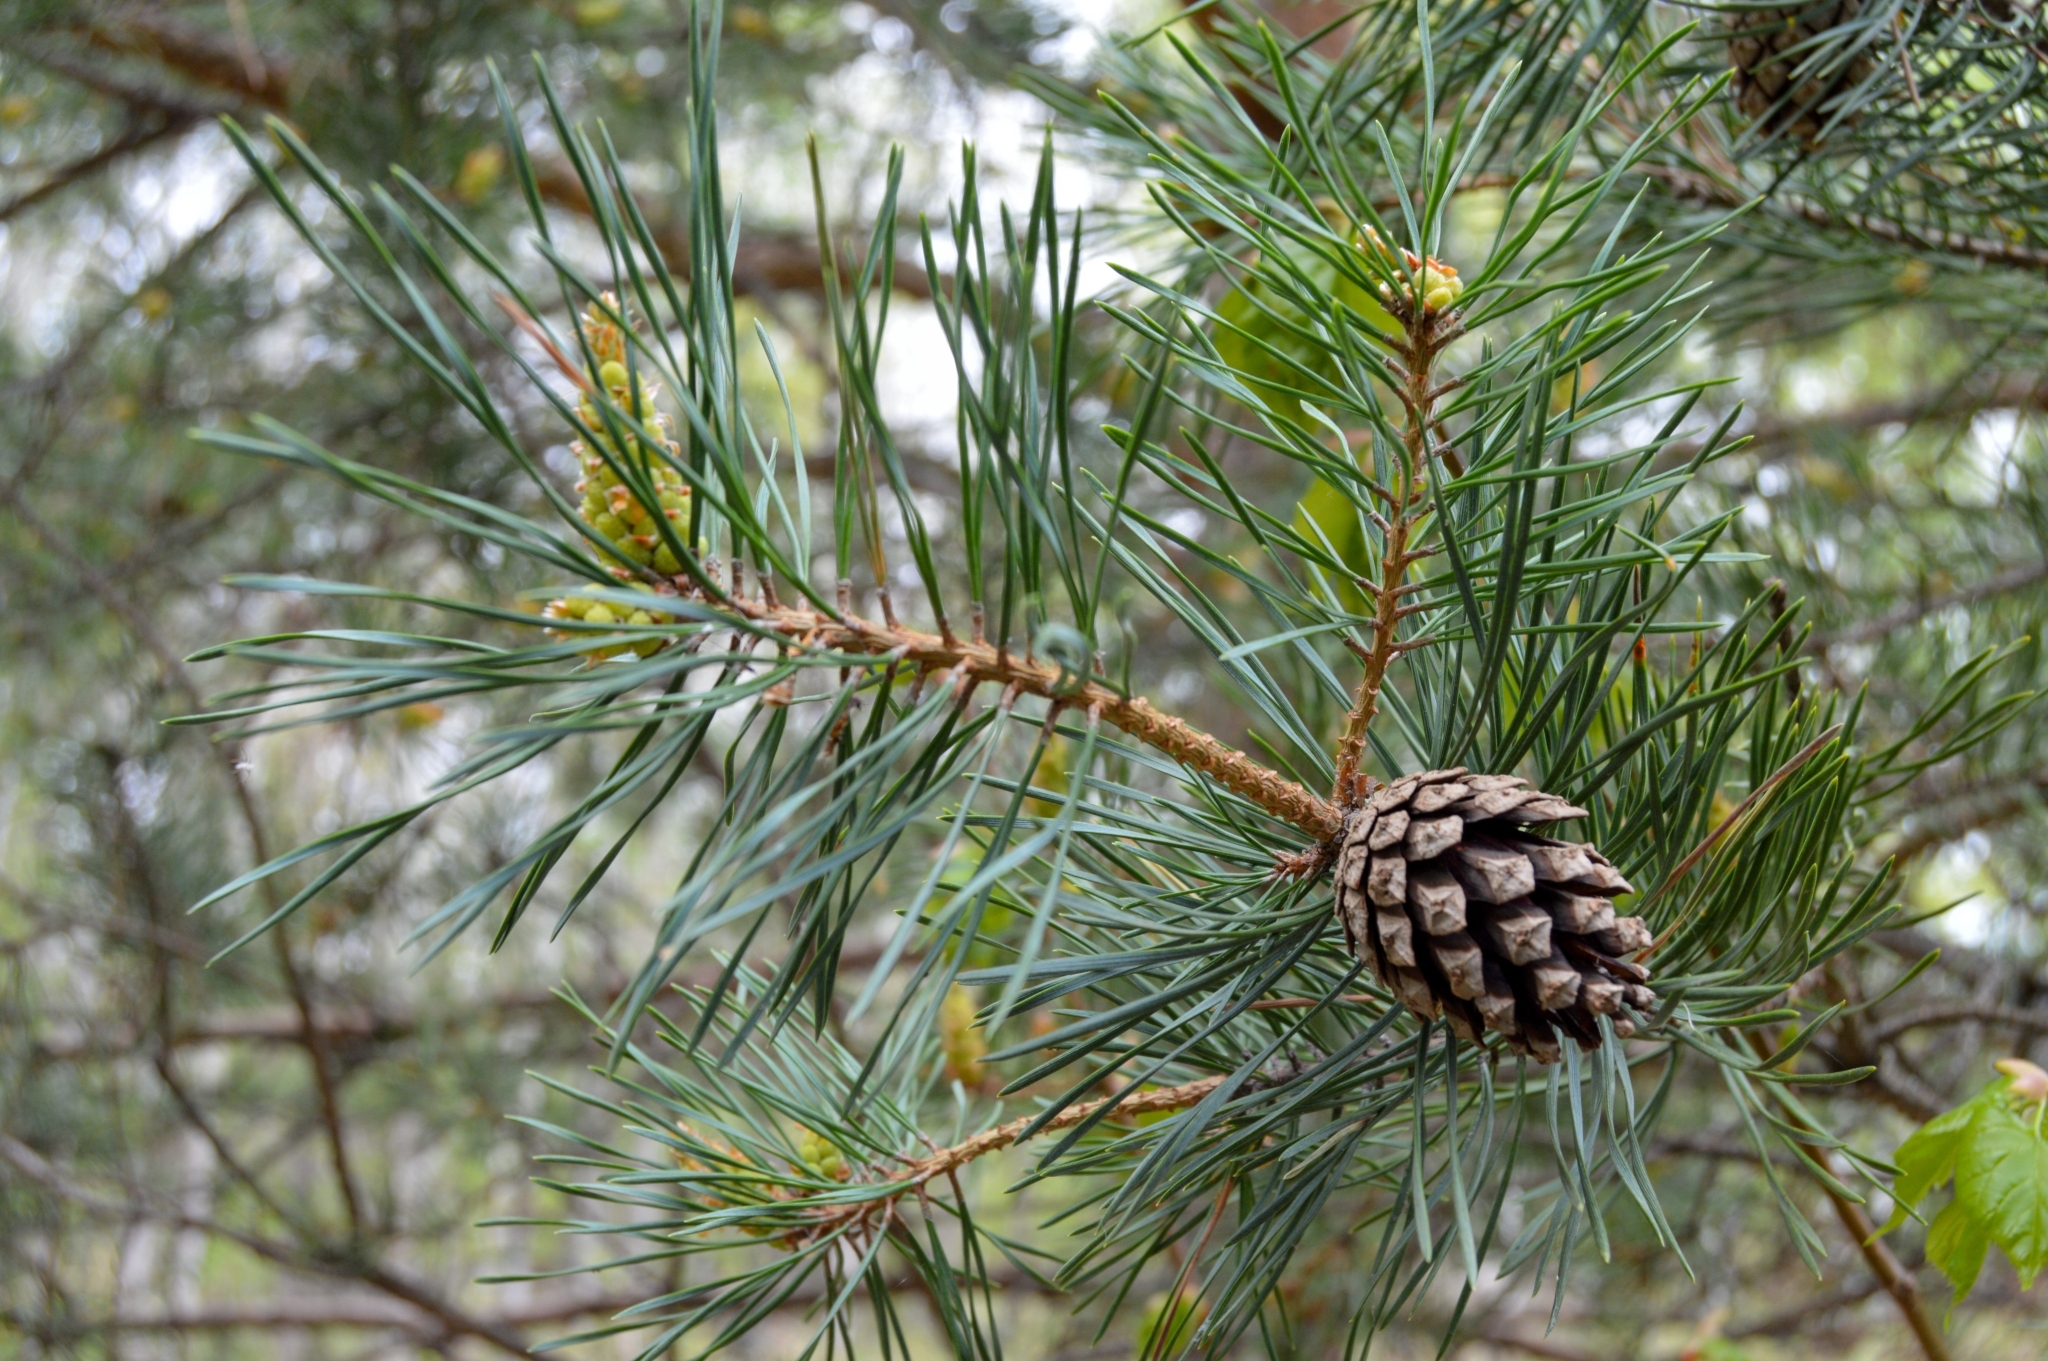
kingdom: Plantae
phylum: Tracheophyta
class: Pinopsida
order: Pinales
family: Pinaceae
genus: Pinus
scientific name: Pinus sylvestris
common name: Scots pine
